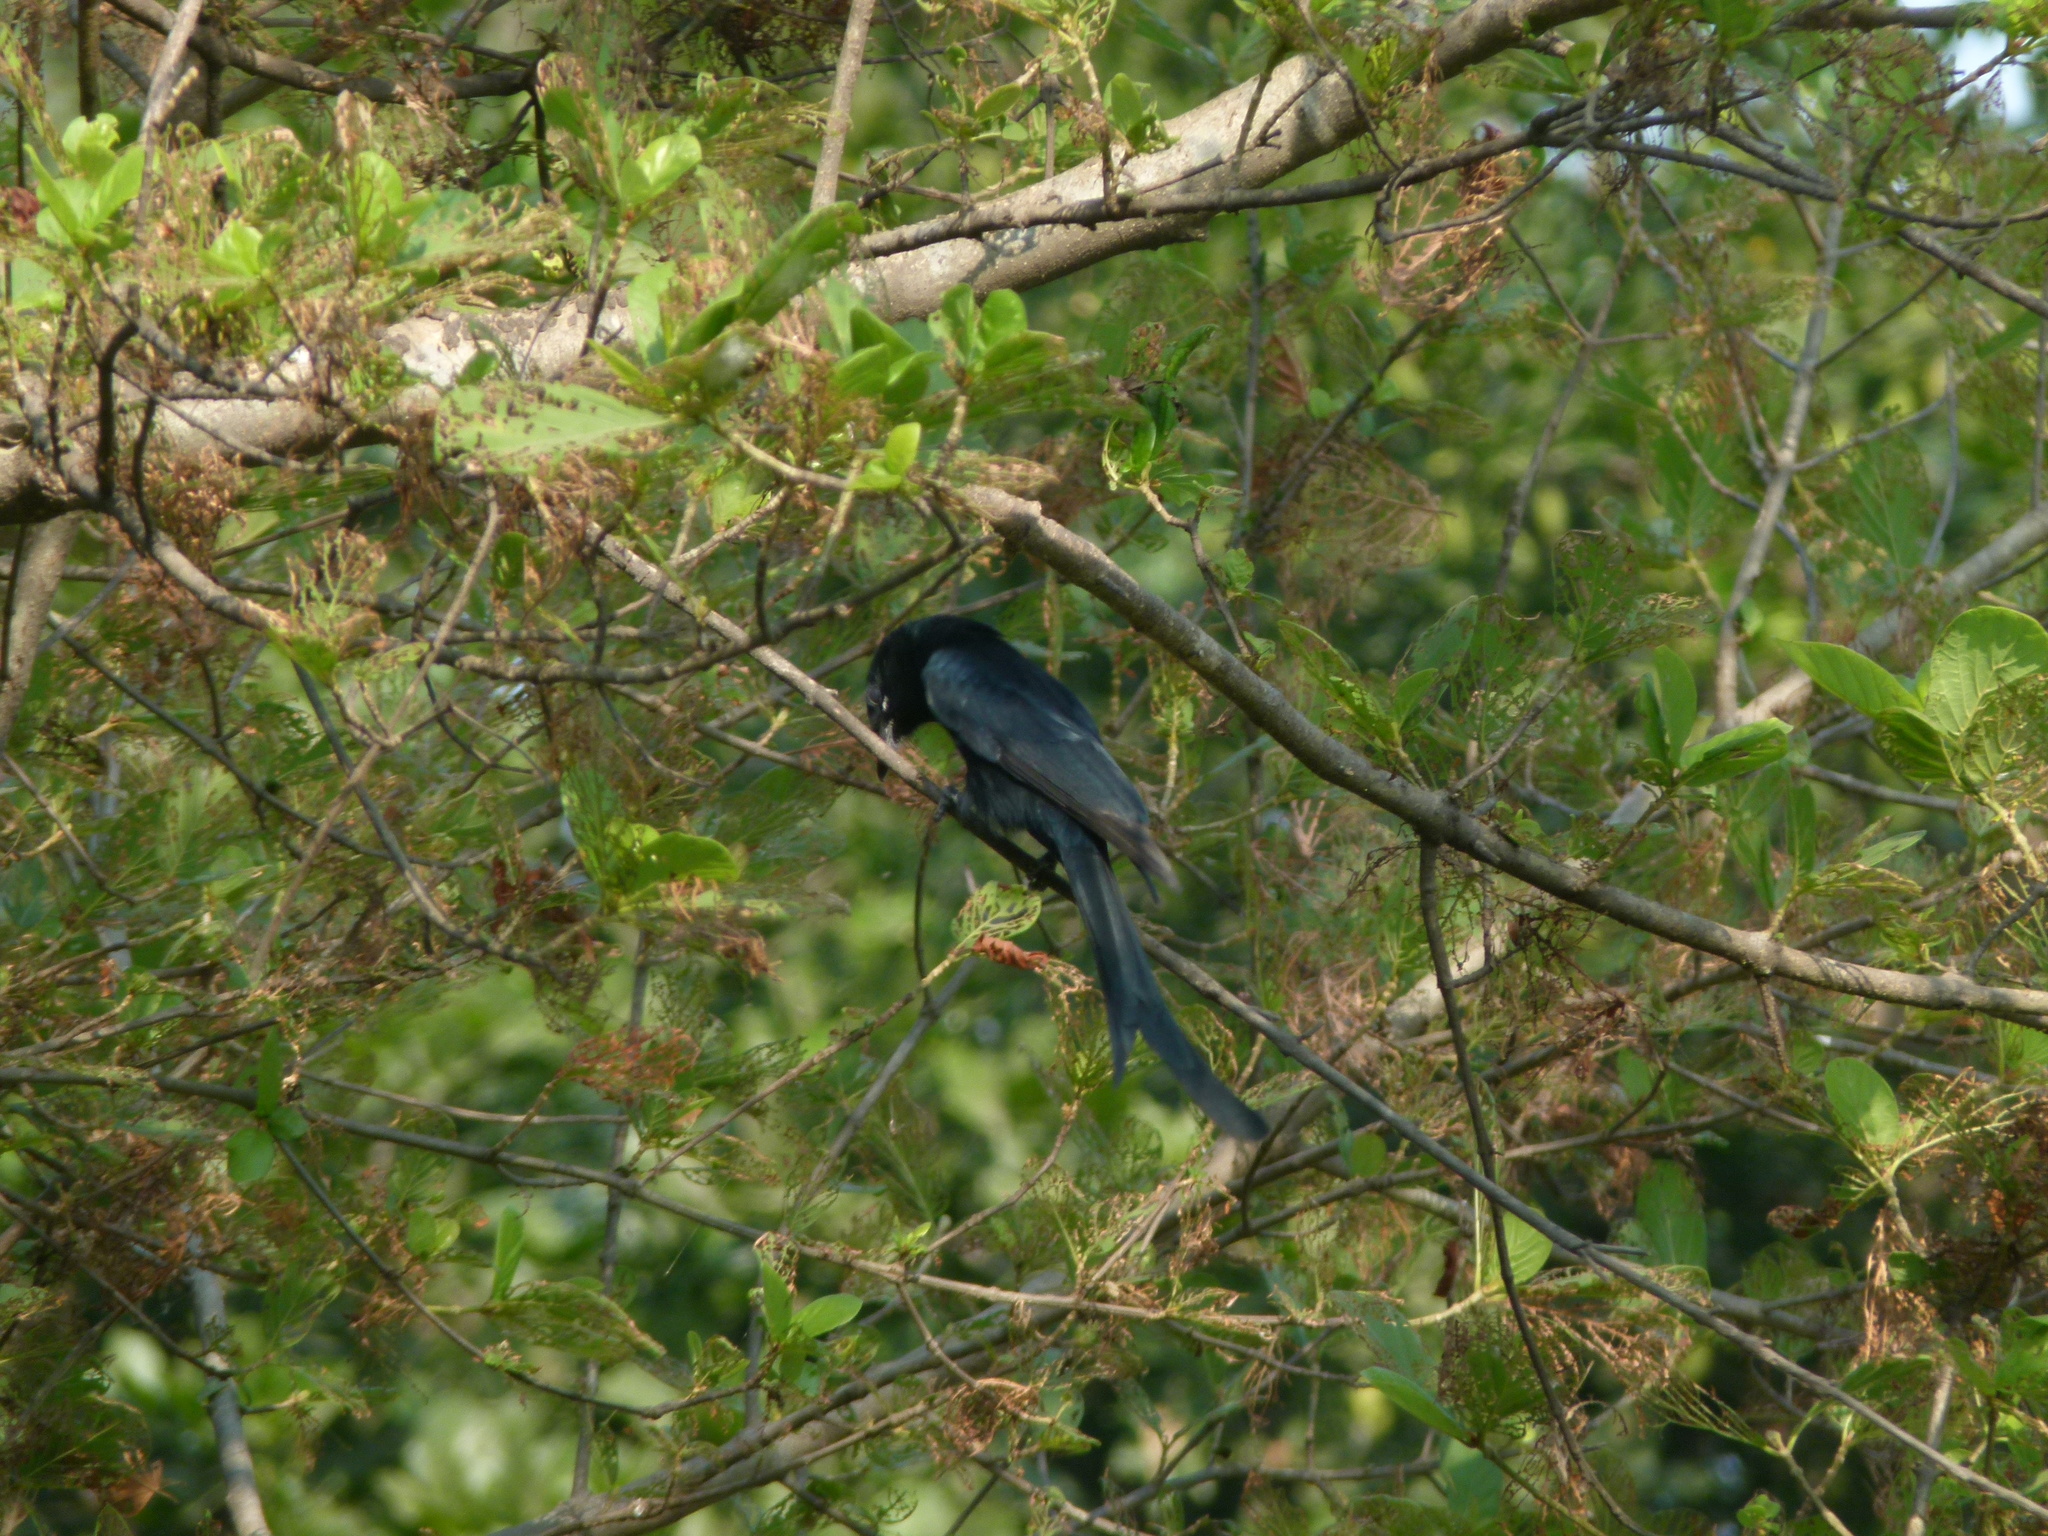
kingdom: Animalia
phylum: Chordata
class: Aves
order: Passeriformes
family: Dicruridae
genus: Dicrurus
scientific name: Dicrurus macrocercus
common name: Black drongo
